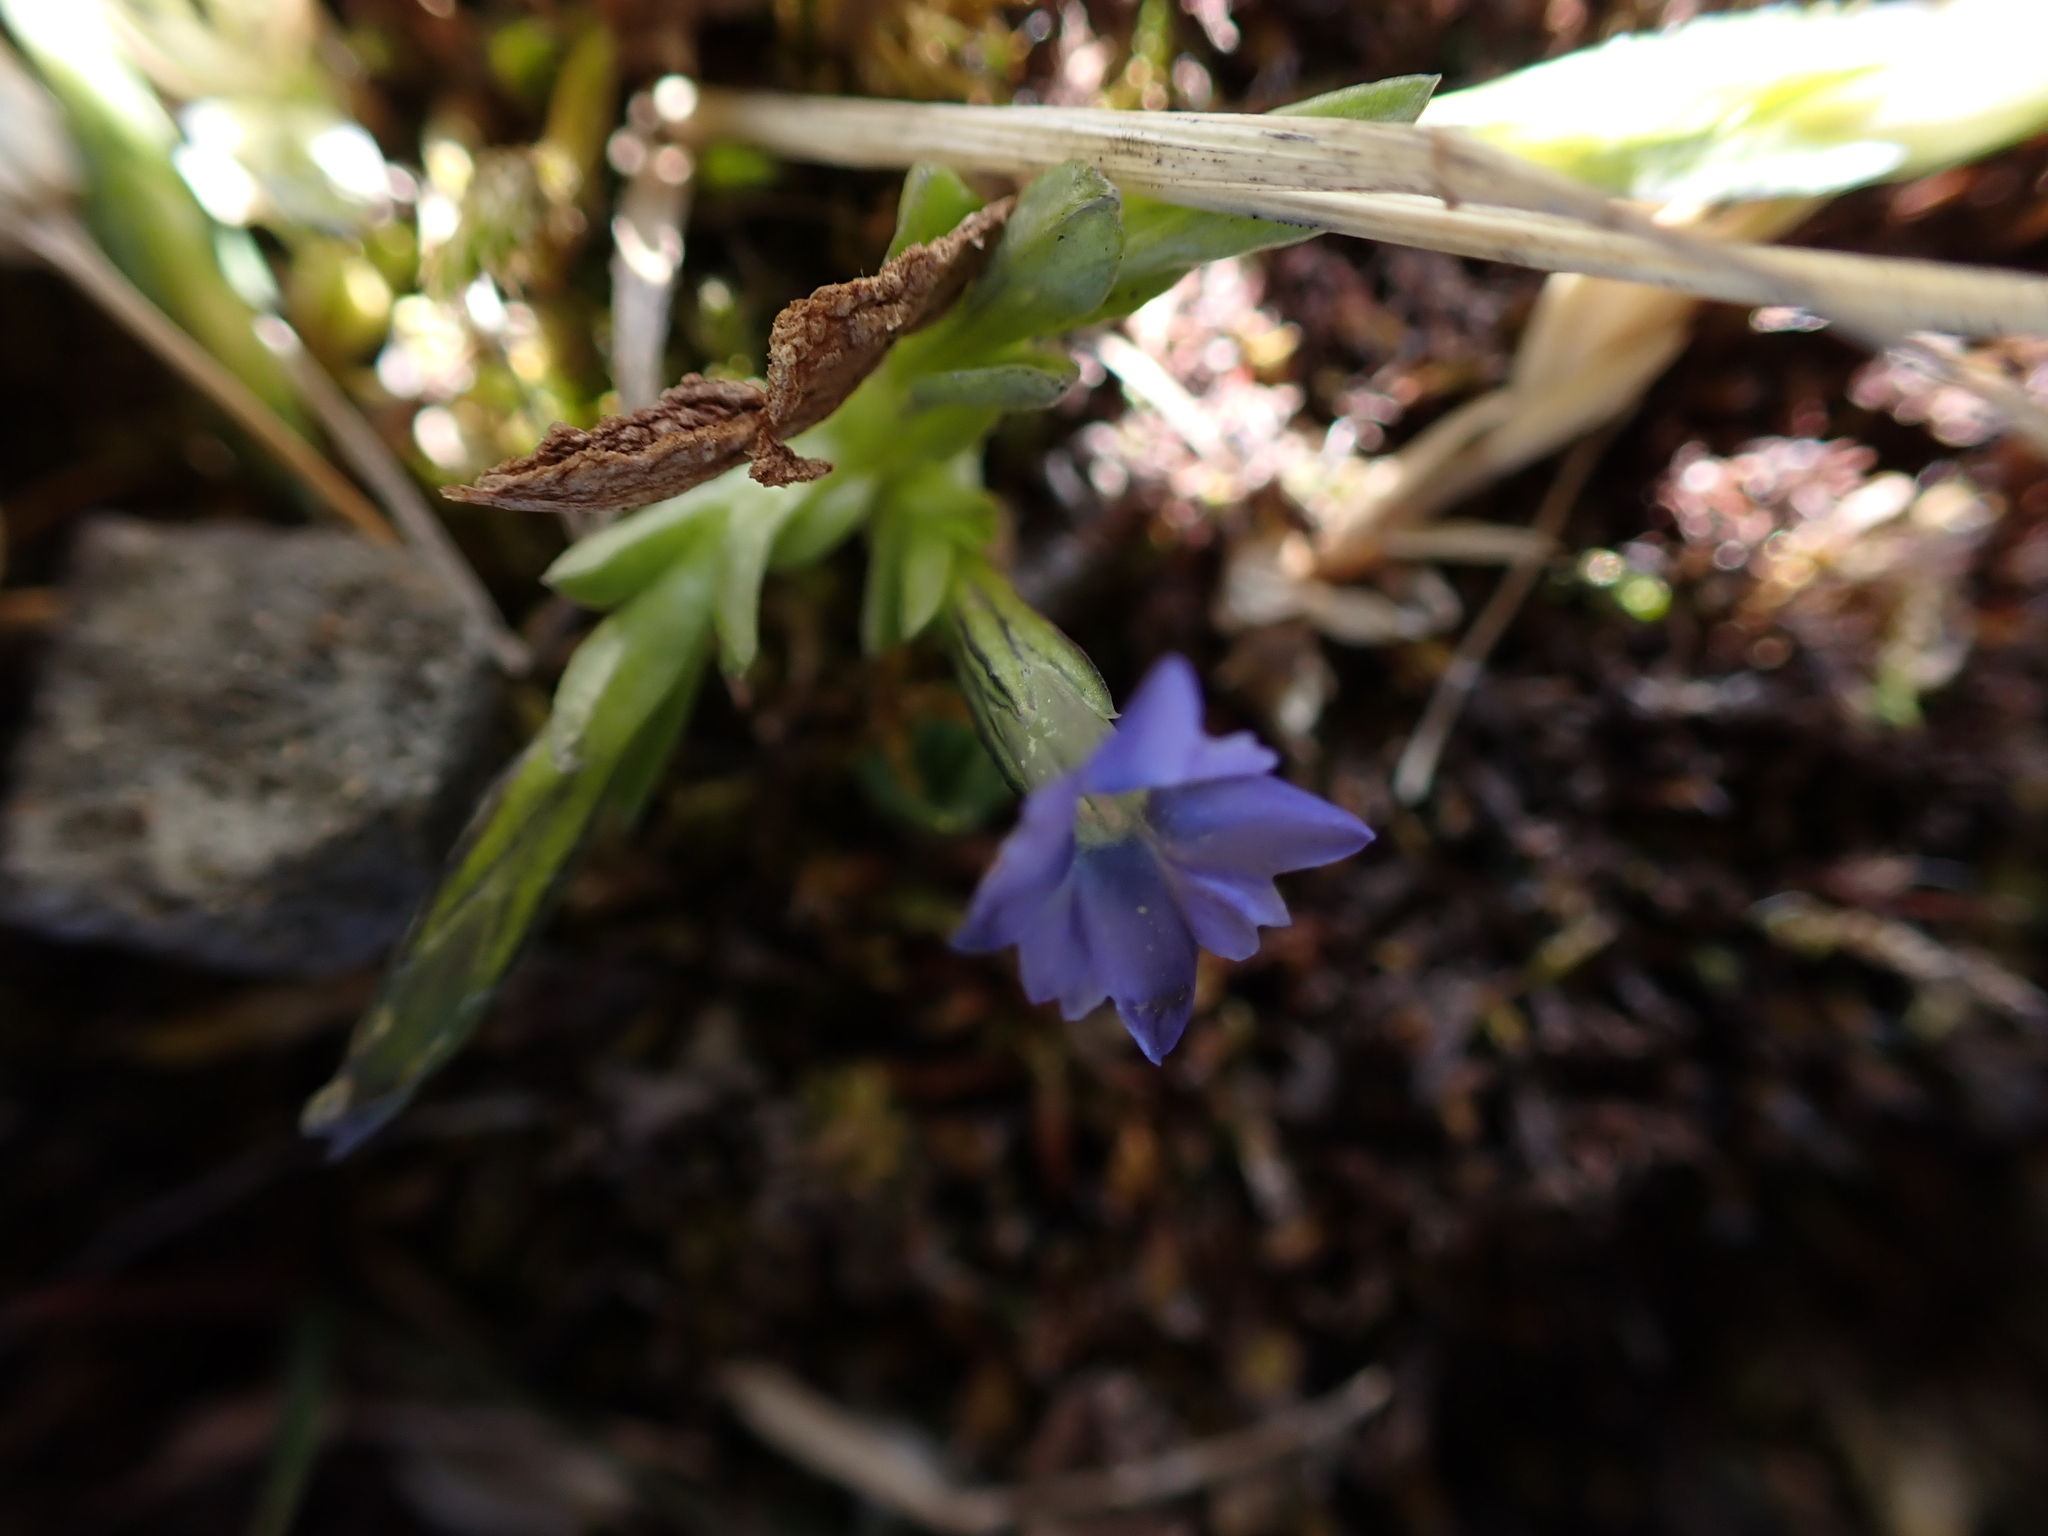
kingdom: Plantae
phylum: Tracheophyta
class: Magnoliopsida
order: Gentianales
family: Gentianaceae
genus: Gentiana
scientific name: Gentiana prostrata
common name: Moss gentian
